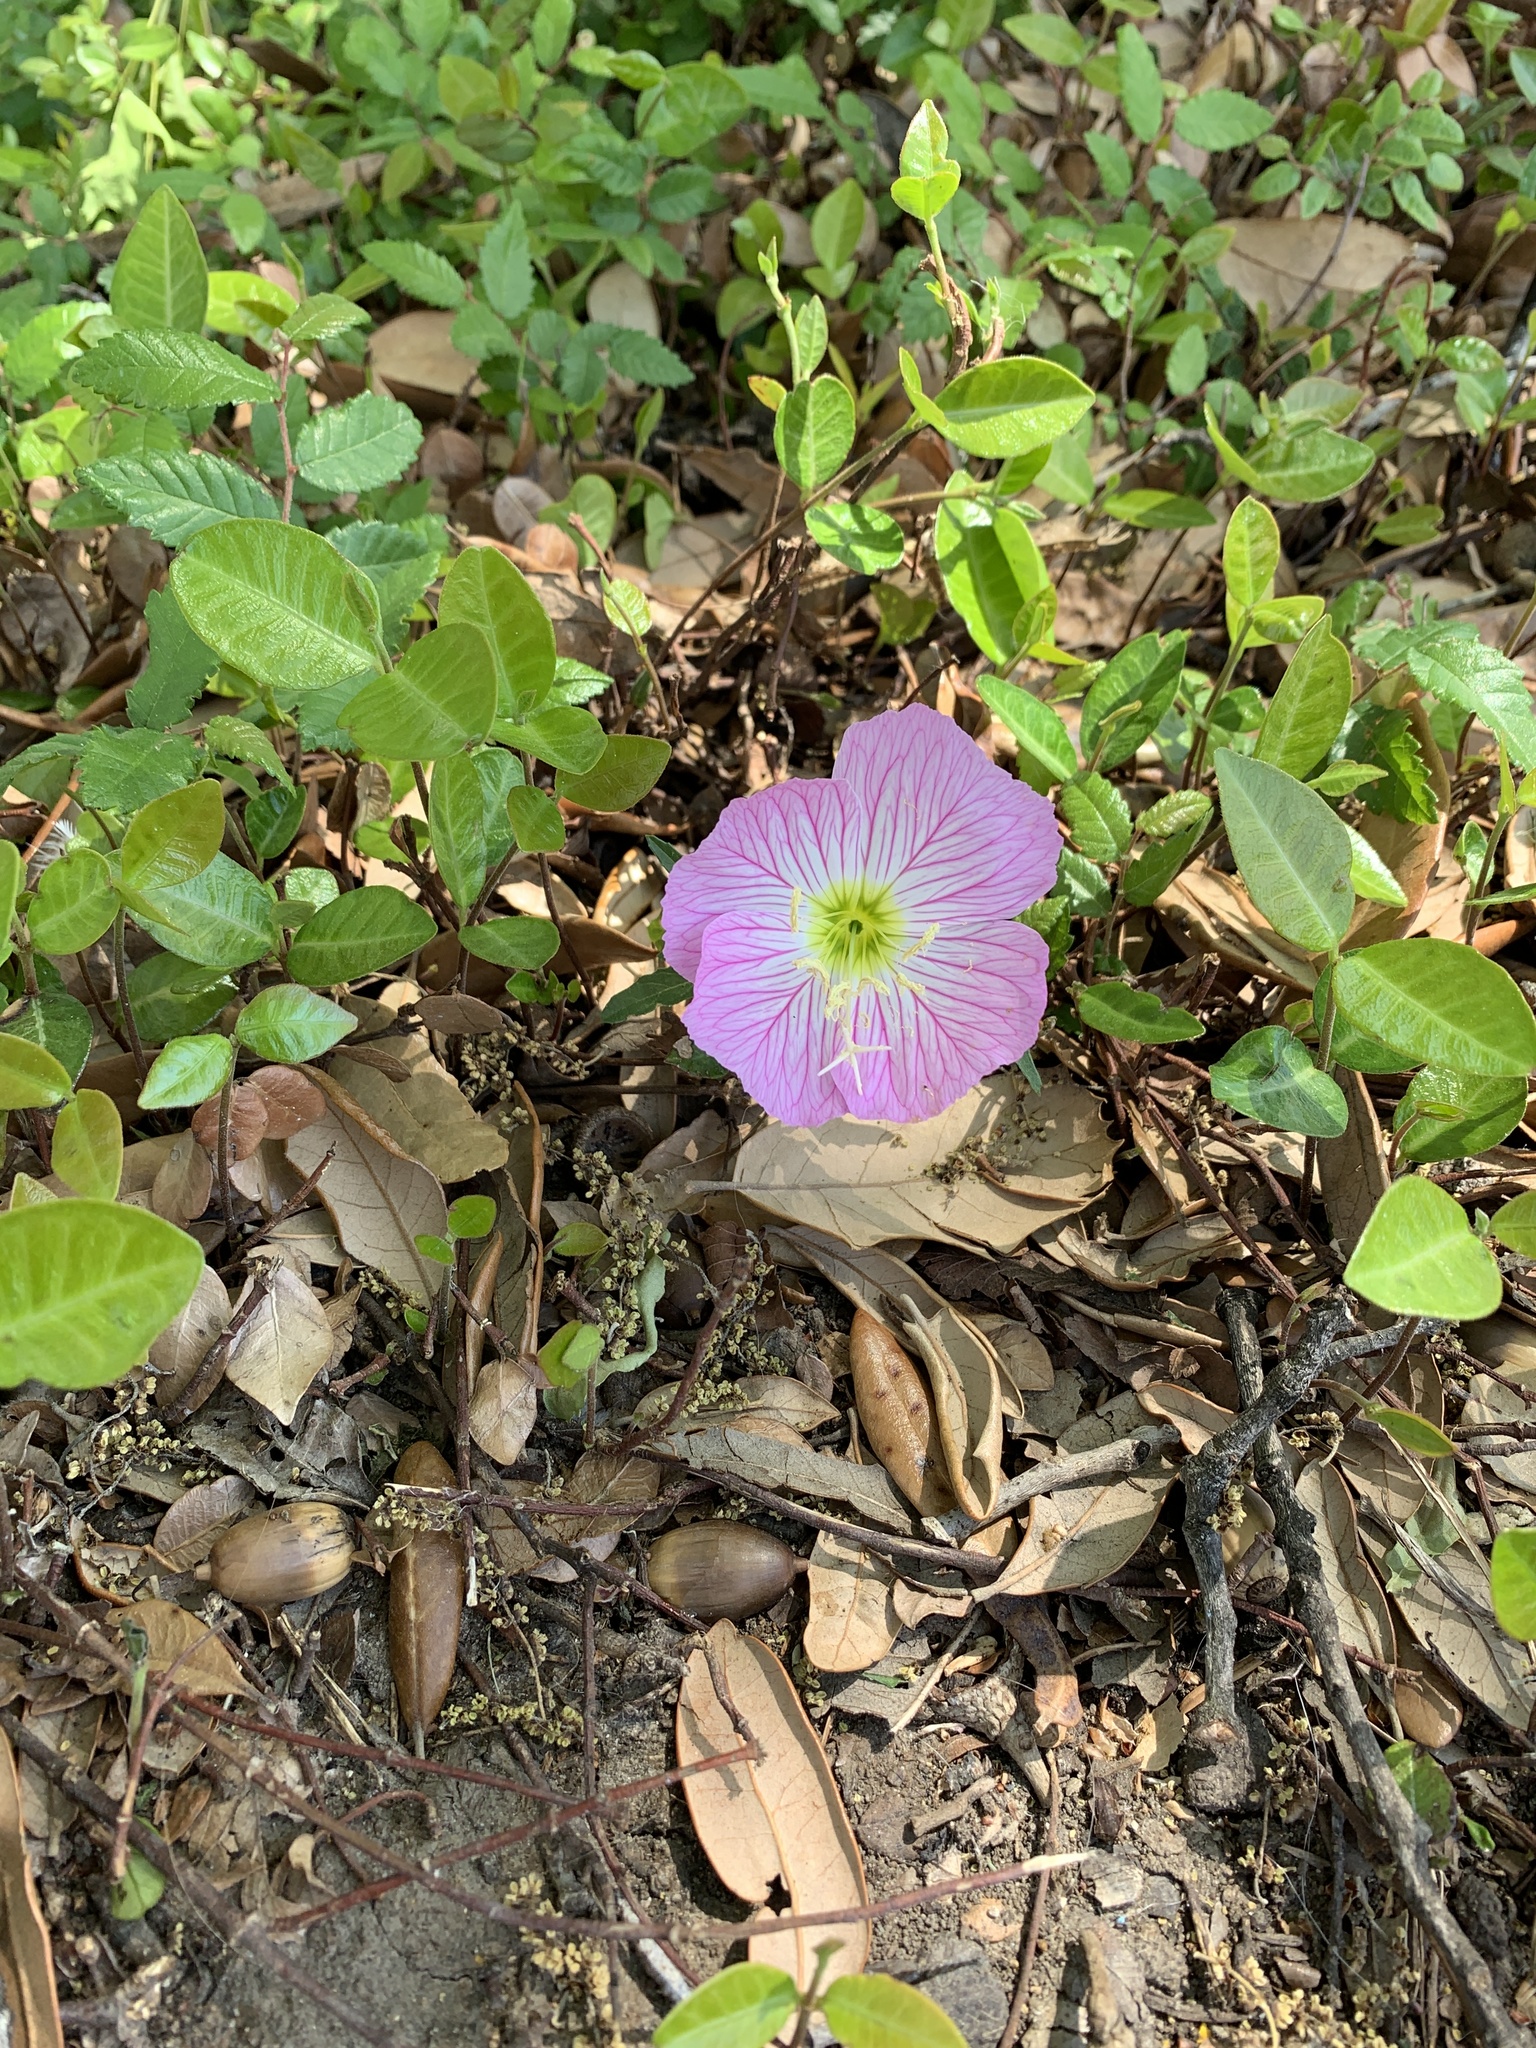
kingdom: Plantae
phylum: Tracheophyta
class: Magnoliopsida
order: Myrtales
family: Onagraceae
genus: Oenothera
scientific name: Oenothera speciosa
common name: White evening-primrose
